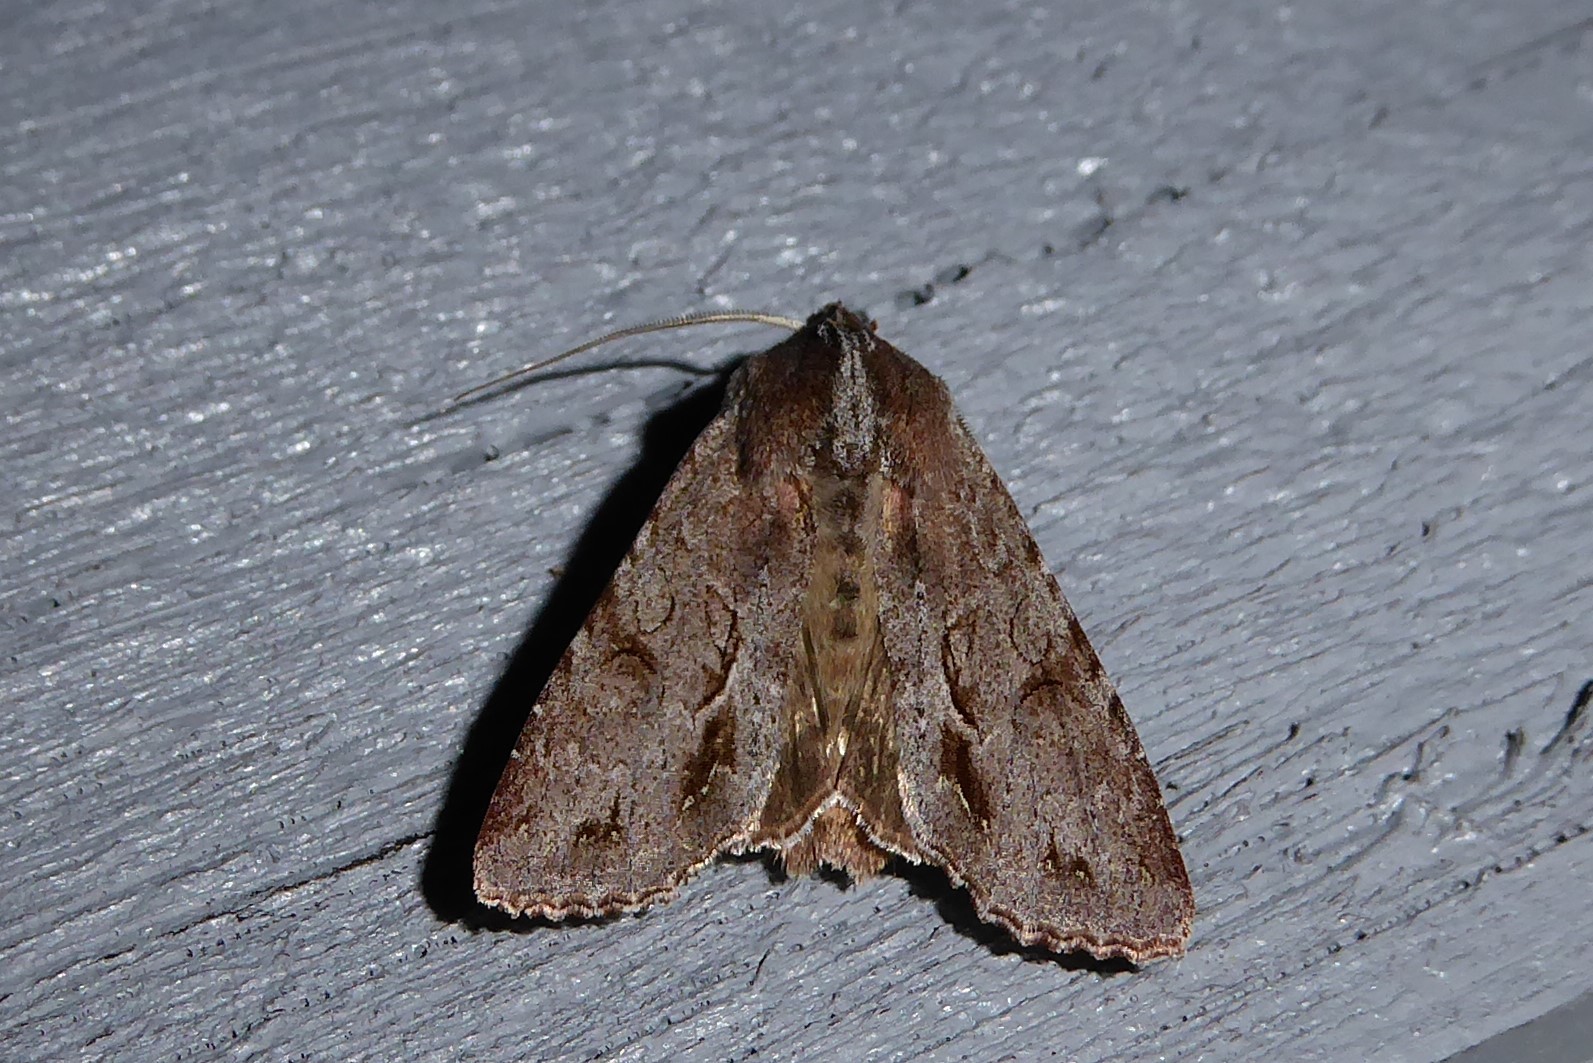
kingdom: Animalia
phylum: Arthropoda
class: Insecta
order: Lepidoptera
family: Noctuidae
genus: Ichneutica
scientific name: Ichneutica
